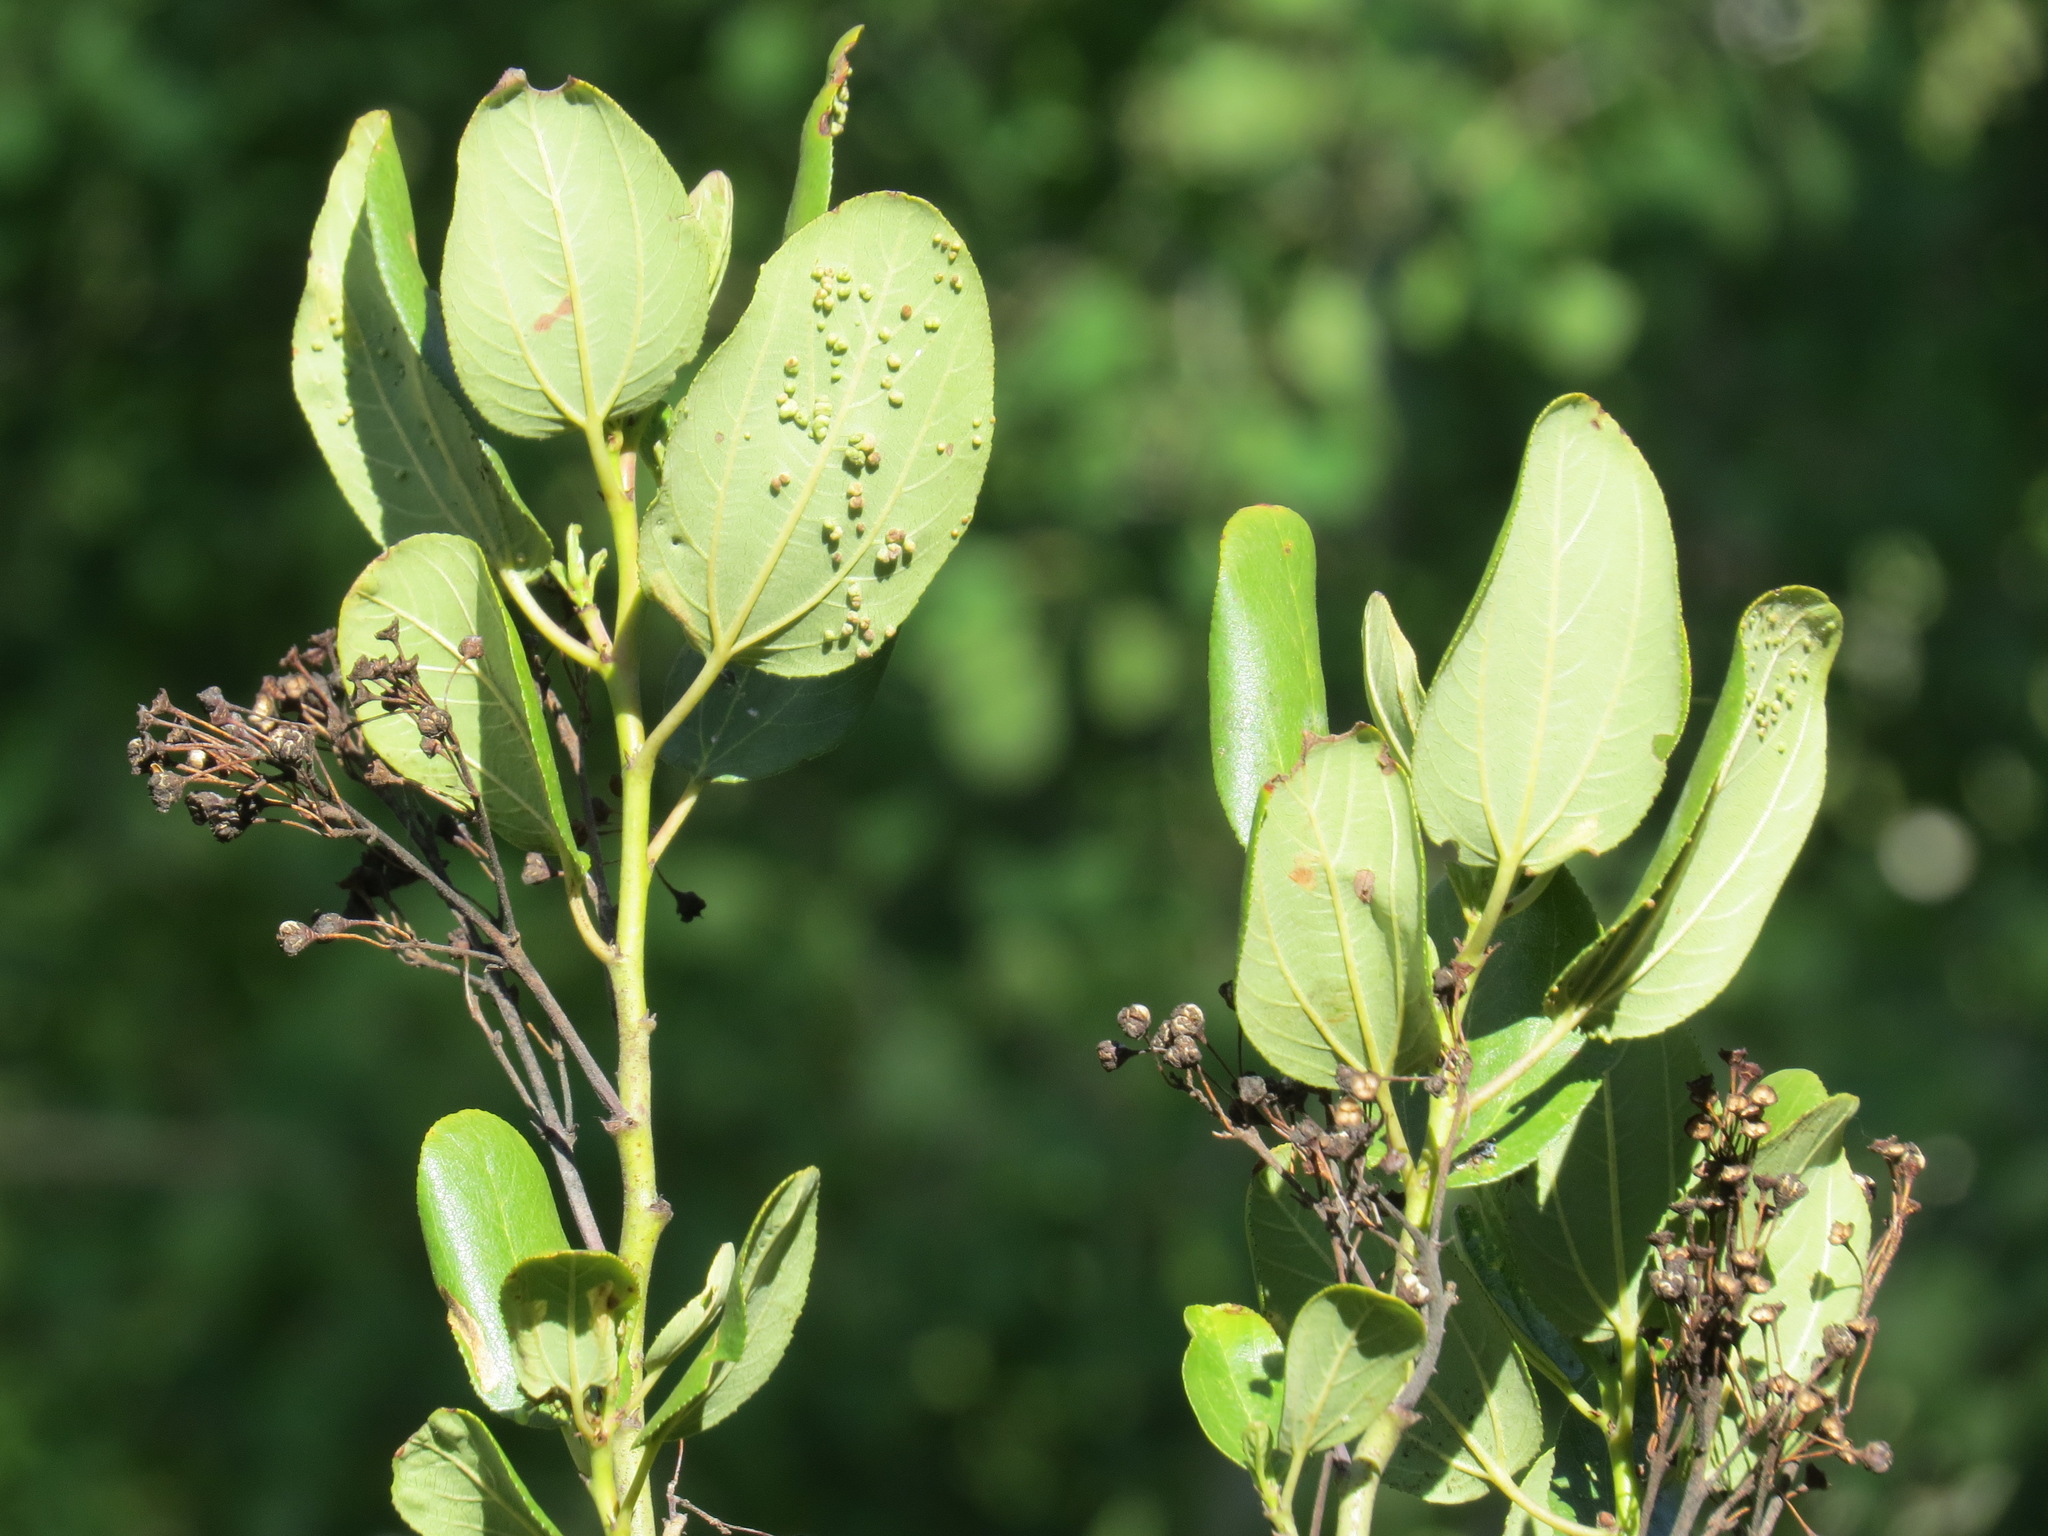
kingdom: Plantae
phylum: Tracheophyta
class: Magnoliopsida
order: Rosales
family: Rhamnaceae
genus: Ceanothus
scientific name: Ceanothus velutinus
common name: Snowbrush
